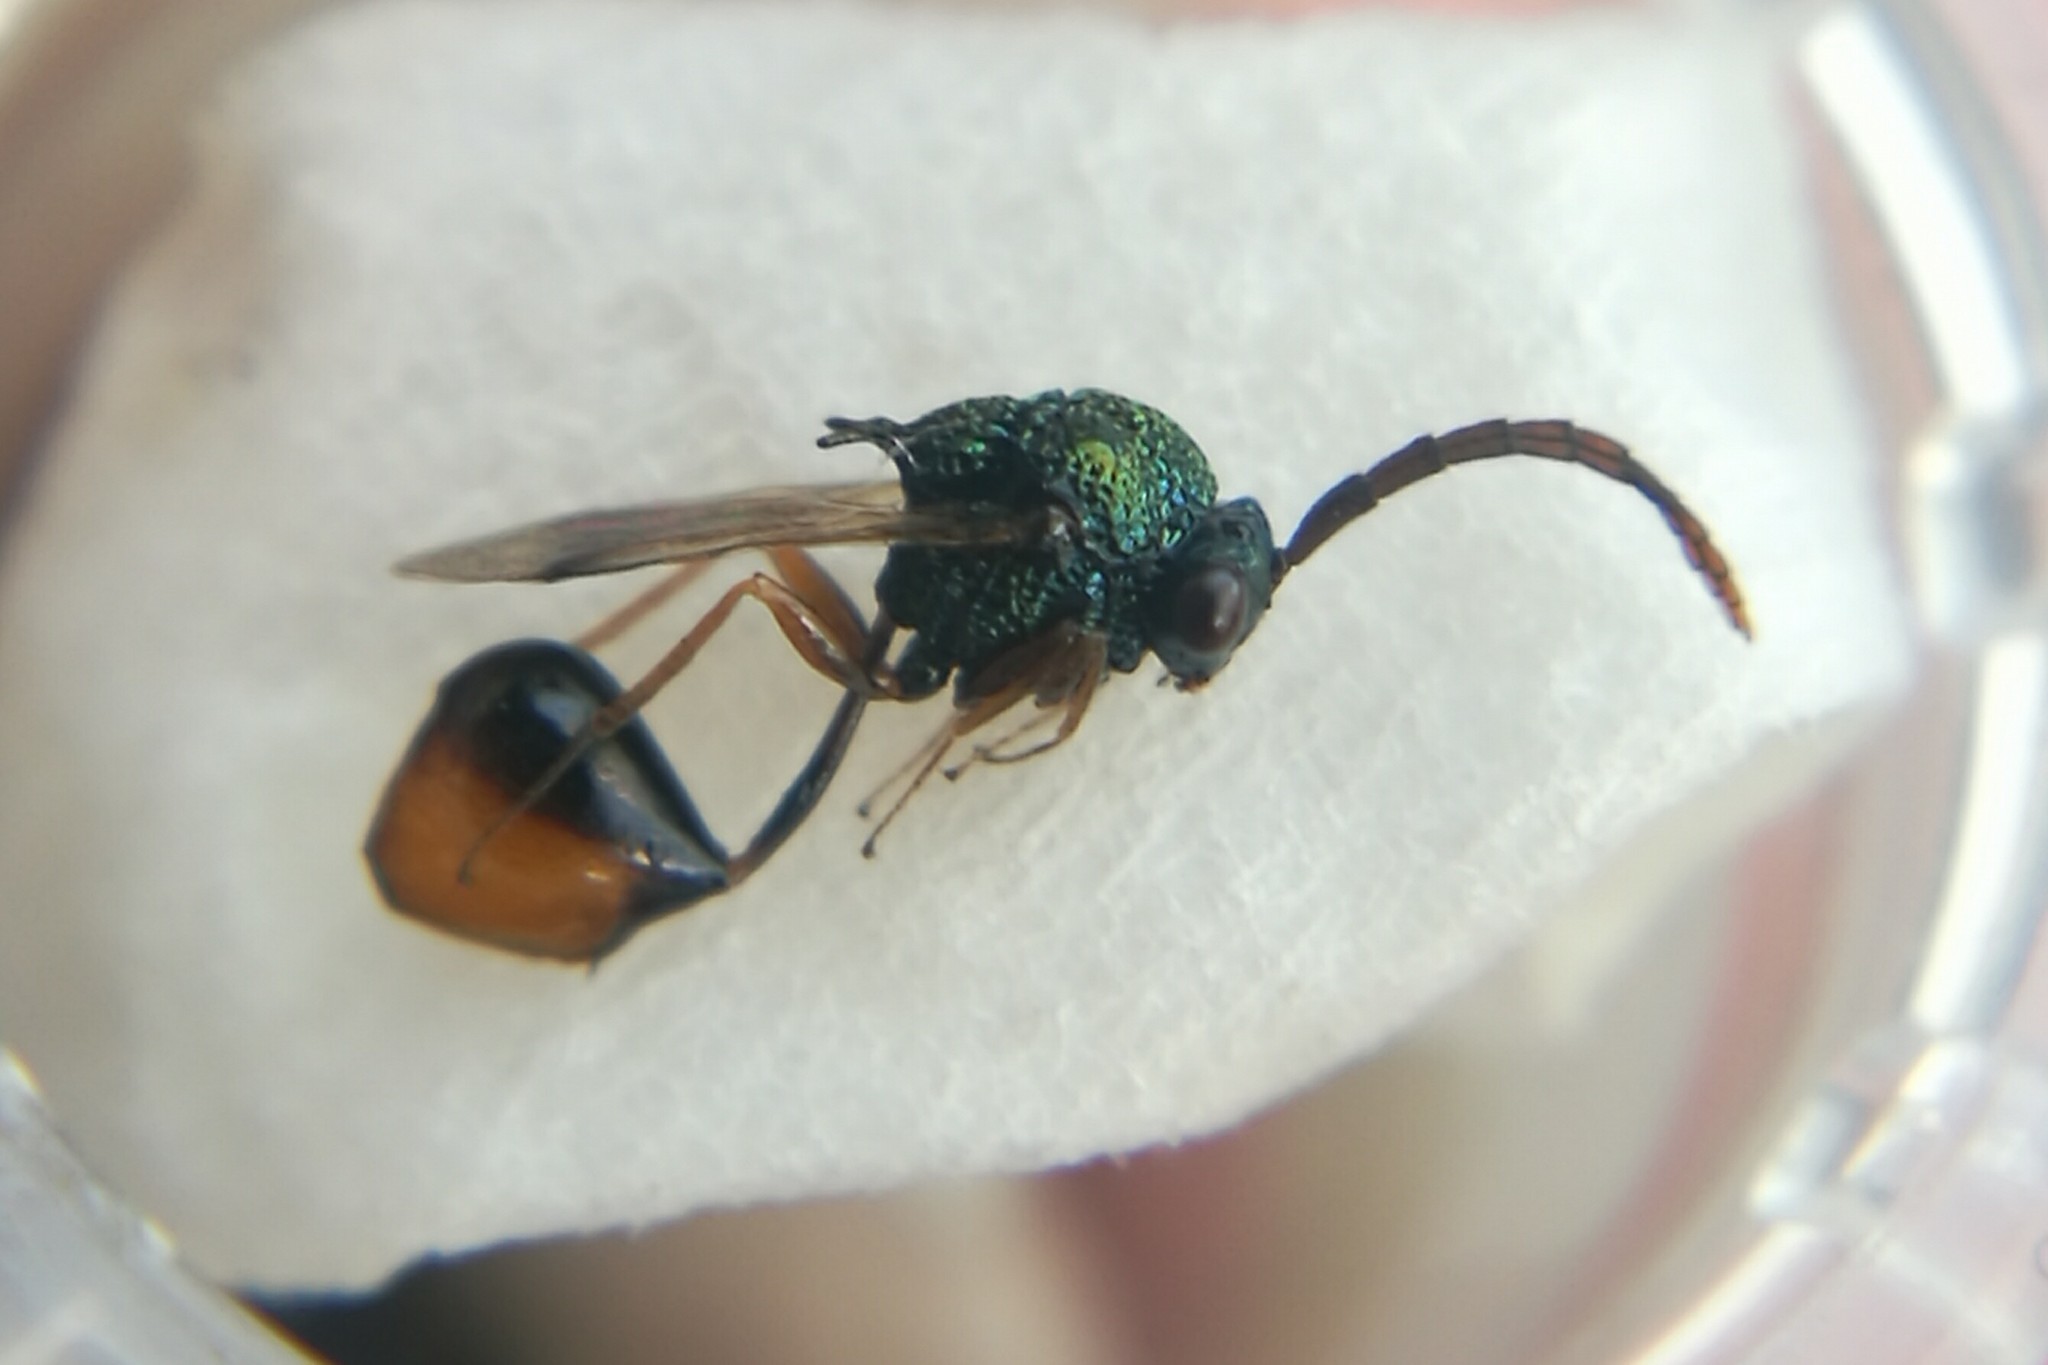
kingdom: Animalia
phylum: Arthropoda
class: Insecta
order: Hymenoptera
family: Eucharitidae
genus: Stilbula
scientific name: Stilbula cyniformis
